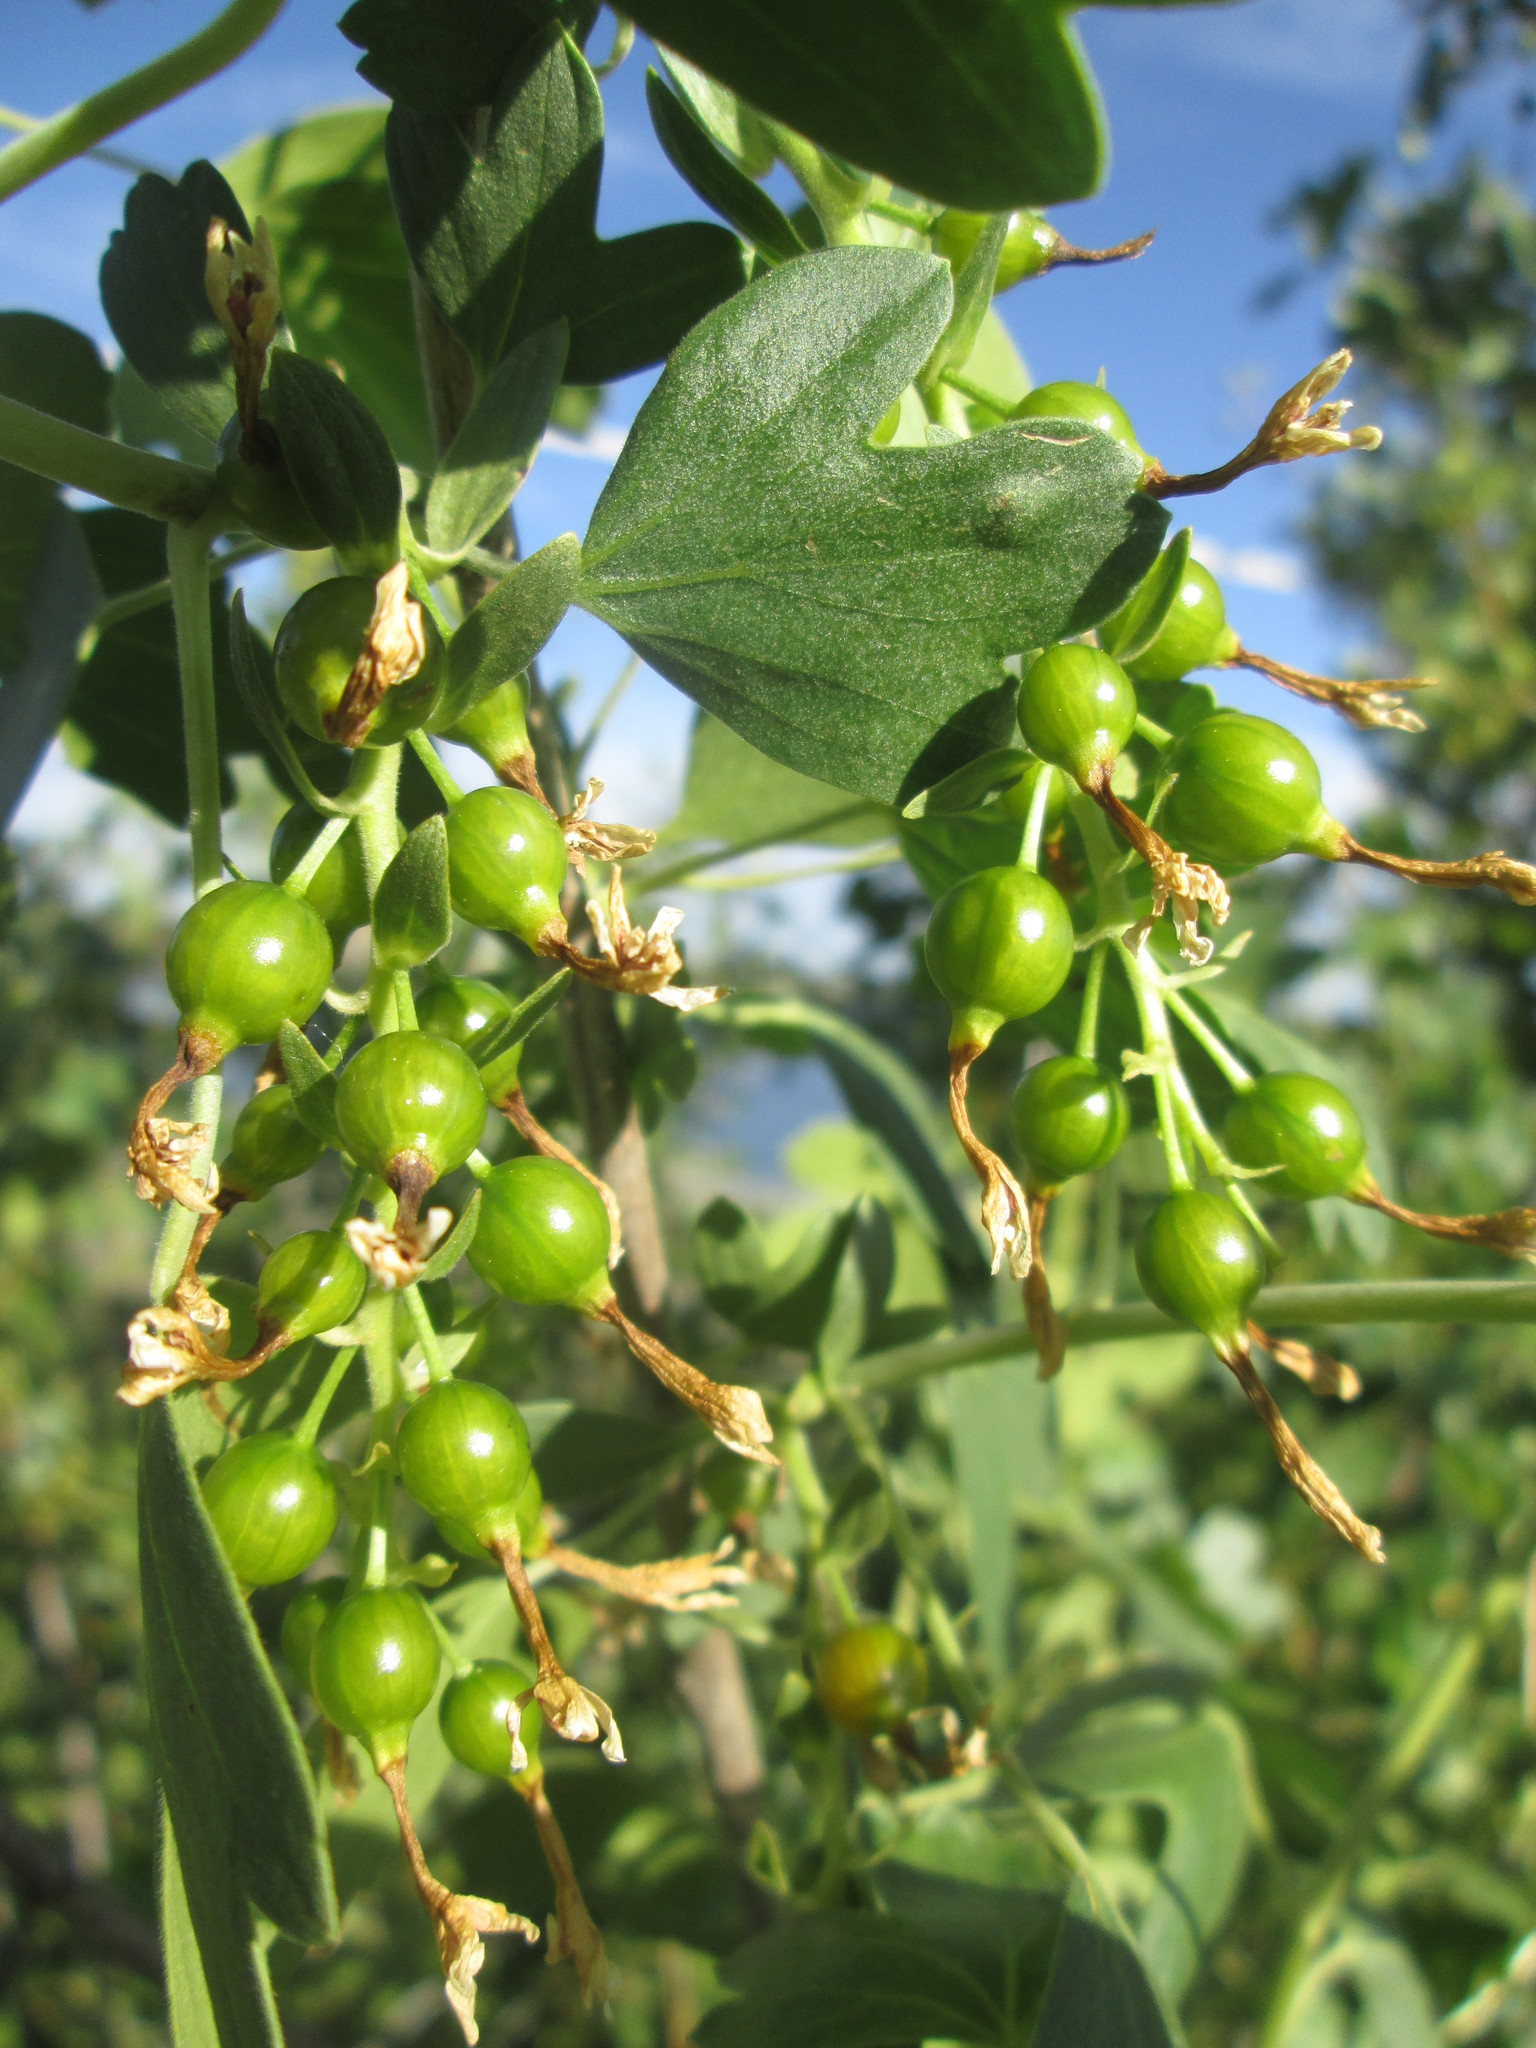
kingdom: Plantae
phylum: Tracheophyta
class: Magnoliopsida
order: Saxifragales
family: Grossulariaceae
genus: Ribes
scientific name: Ribes aureum
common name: Golden currant
